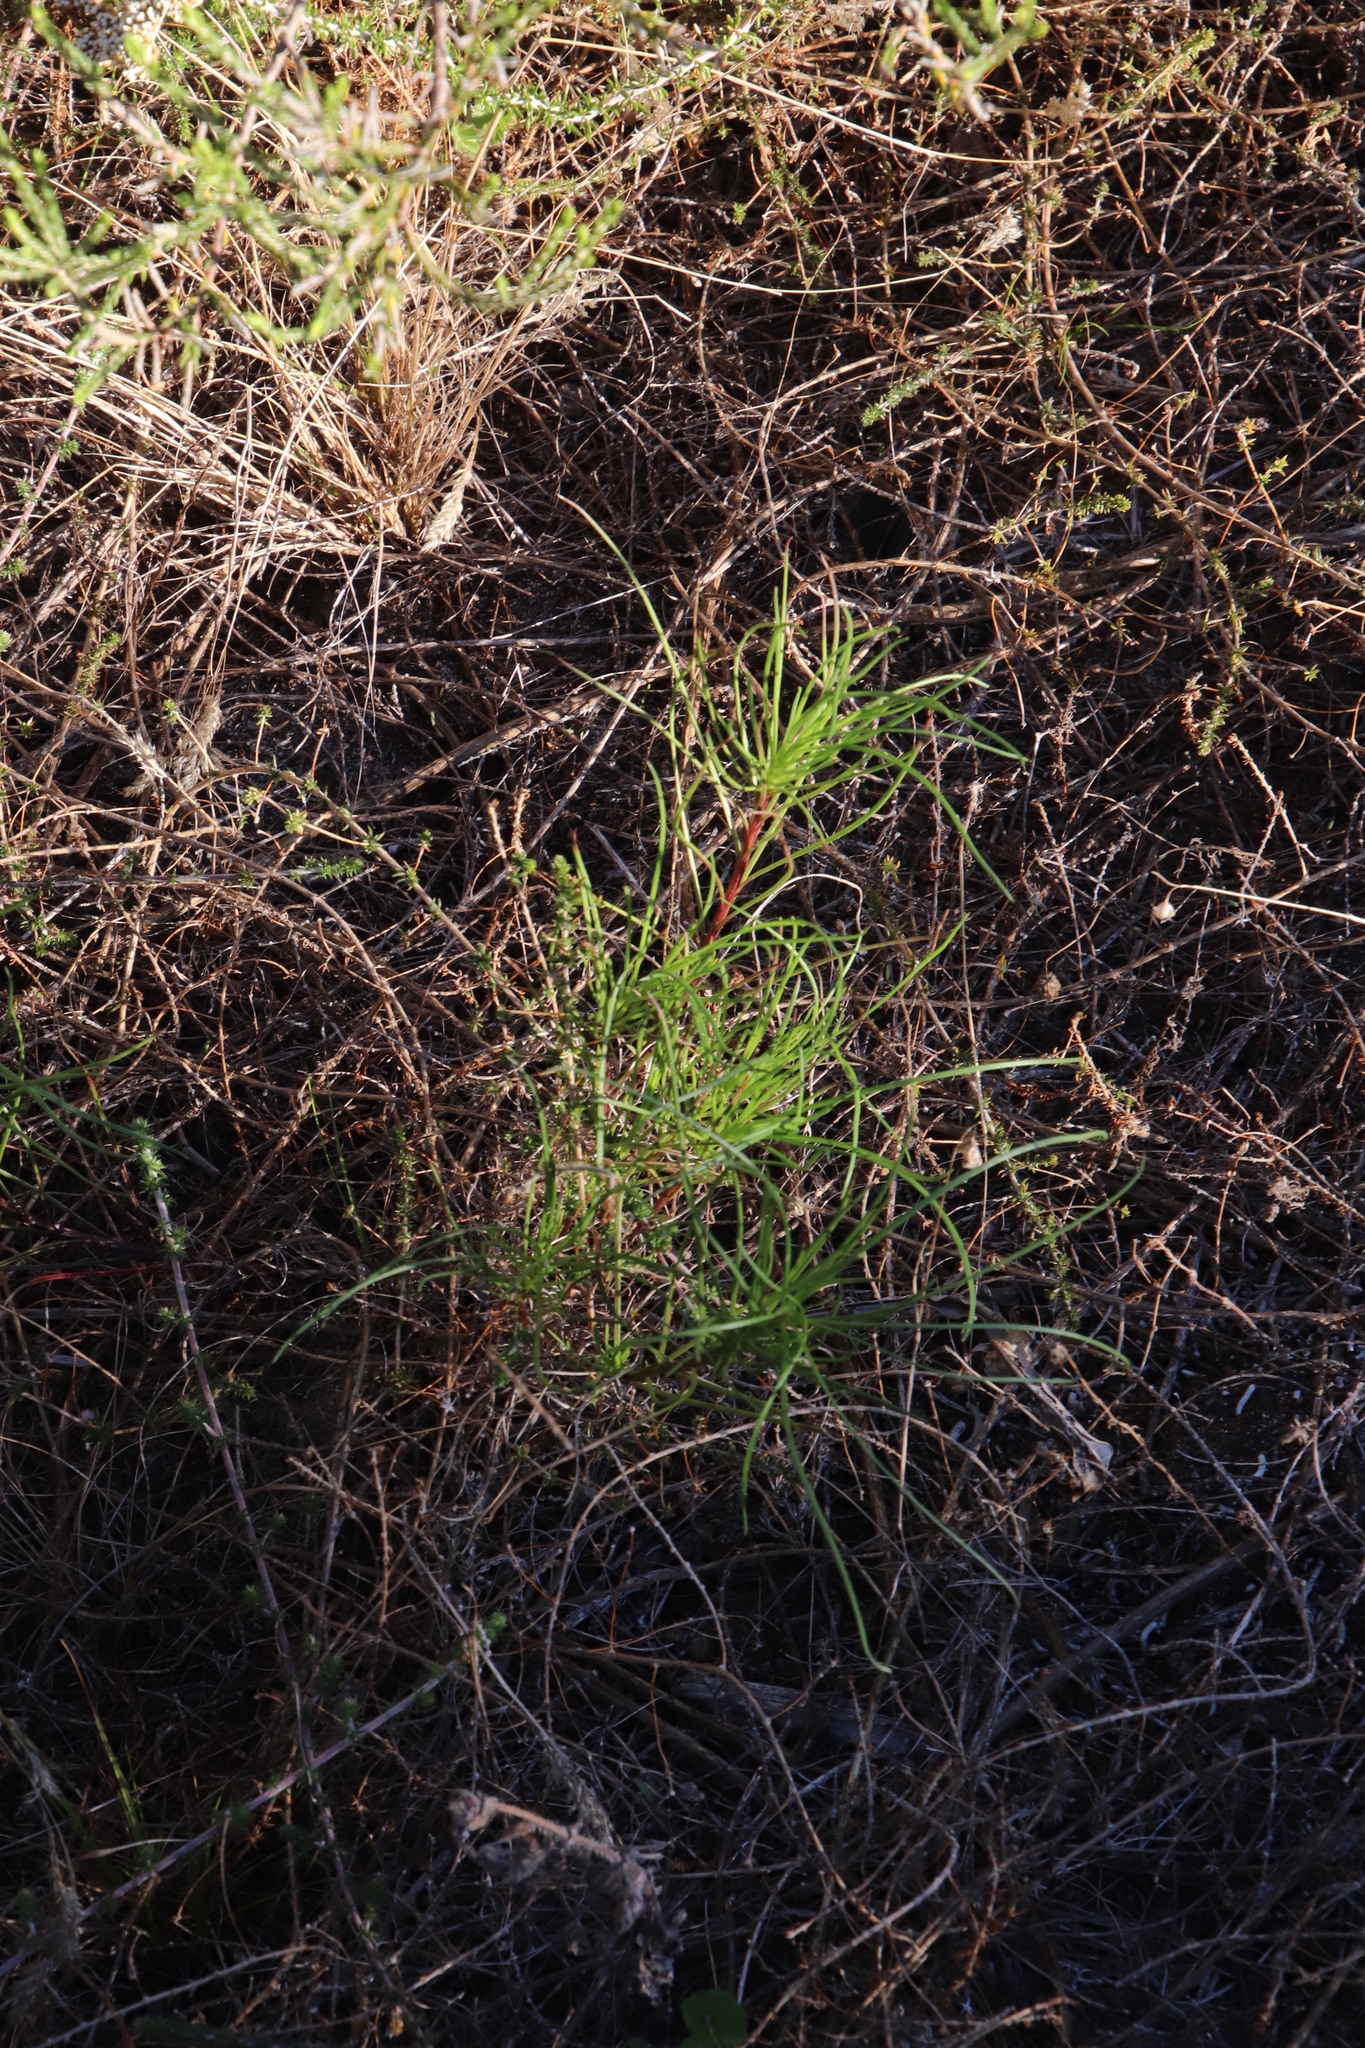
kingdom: Plantae
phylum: Tracheophyta
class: Magnoliopsida
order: Asterales
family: Asteraceae
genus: Senecio
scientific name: Senecio burchellii
